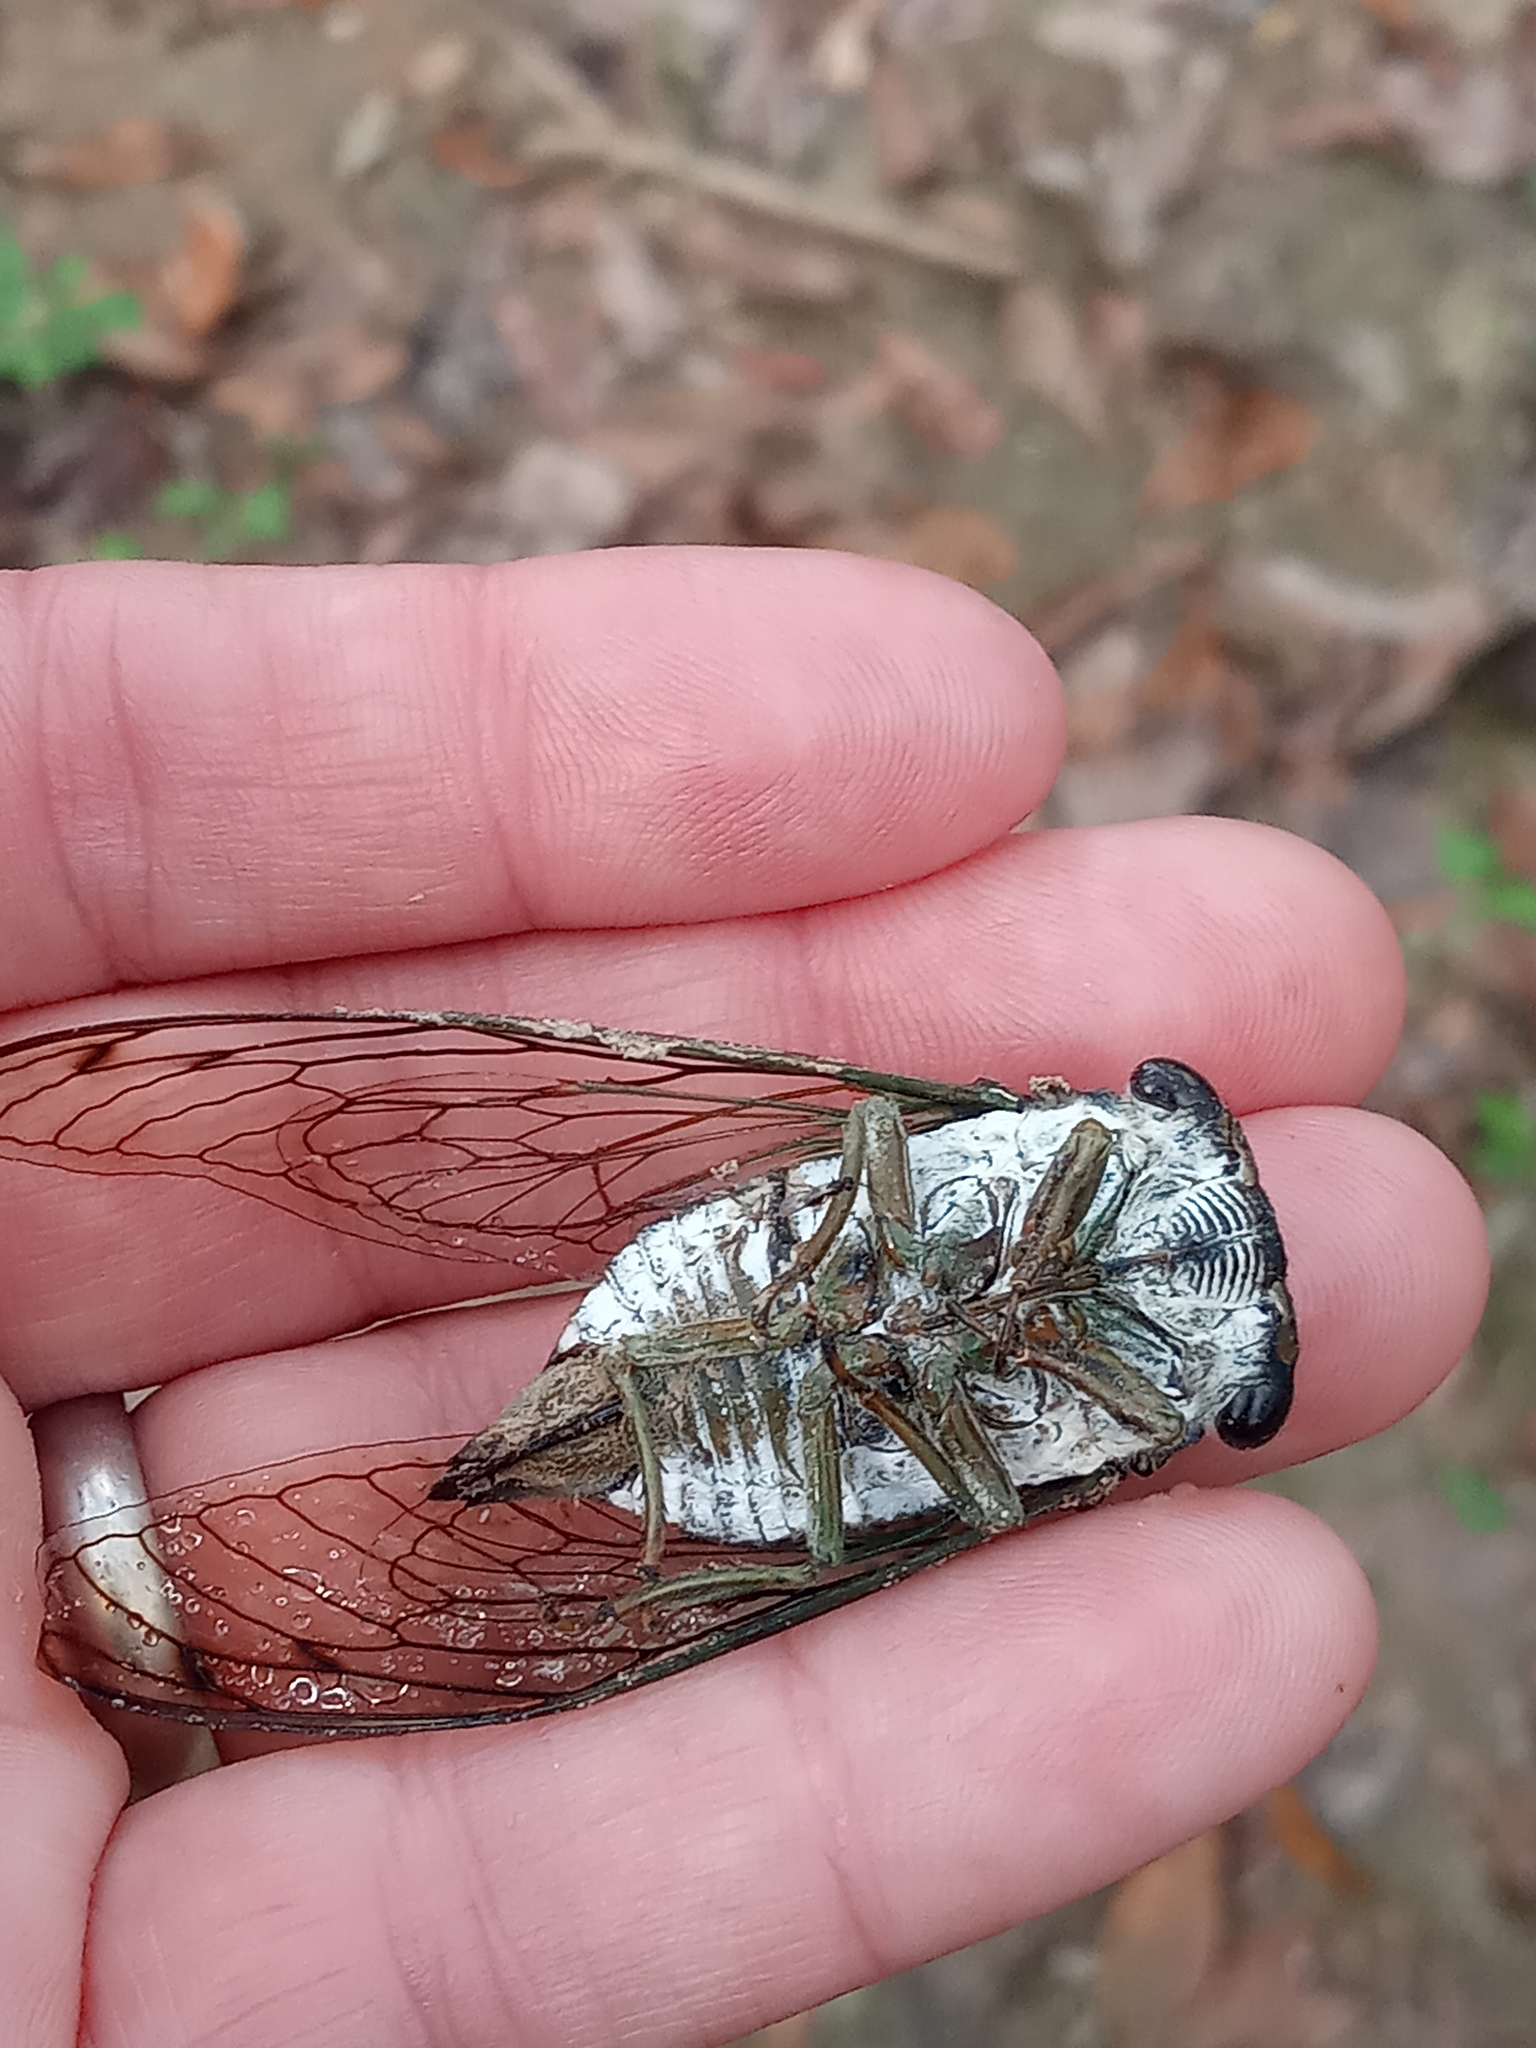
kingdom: Animalia
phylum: Arthropoda
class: Insecta
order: Hemiptera
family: Cicadidae
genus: Neotibicen
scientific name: Neotibicen tibicen
